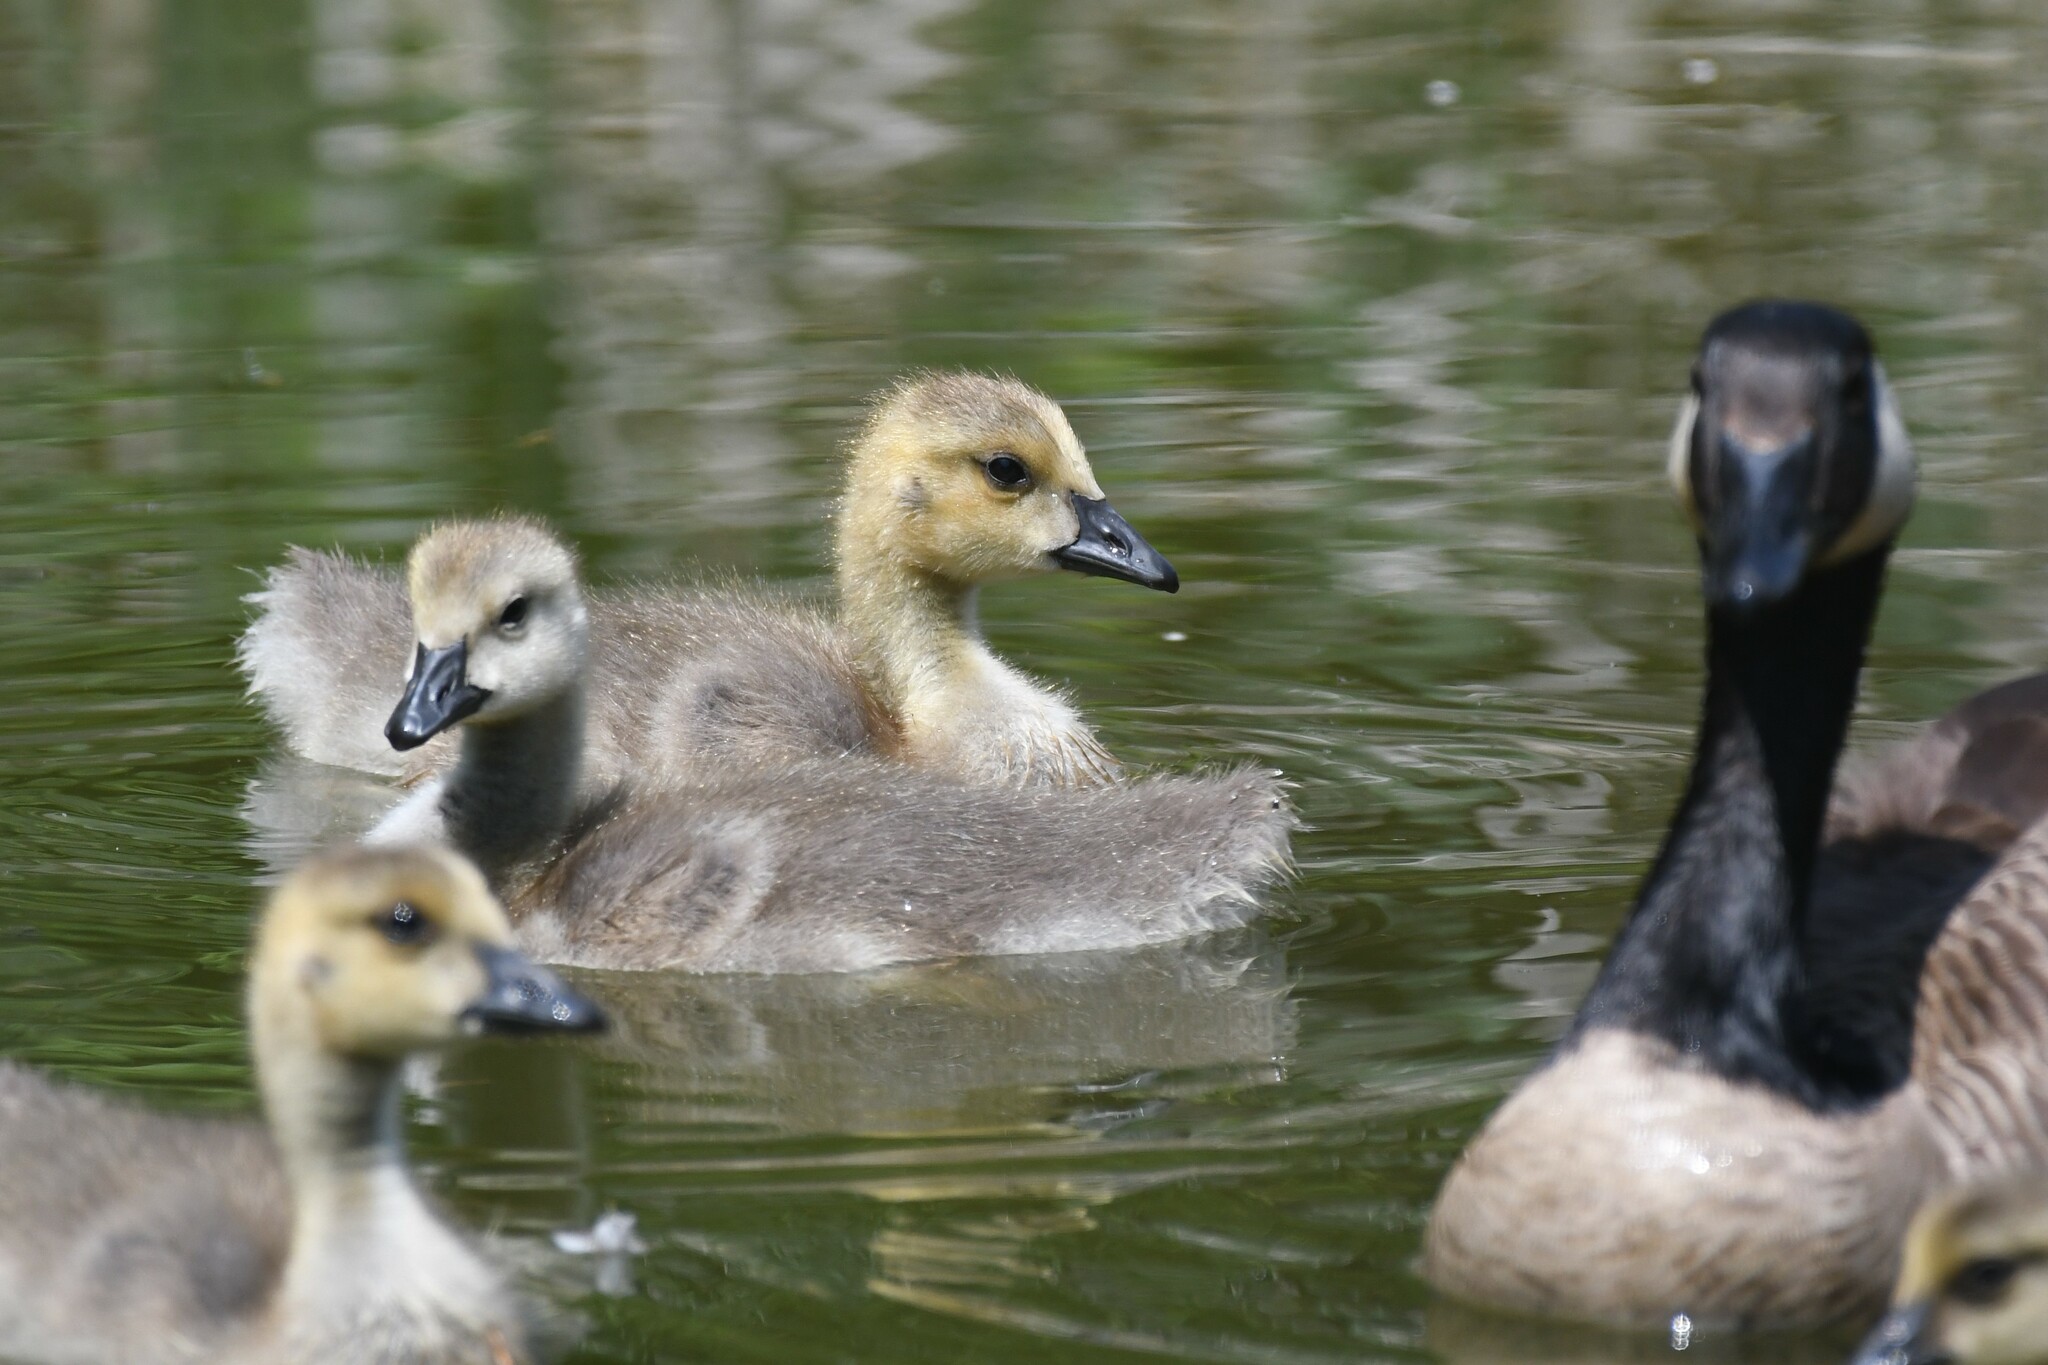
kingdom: Animalia
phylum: Chordata
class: Aves
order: Anseriformes
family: Anatidae
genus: Branta
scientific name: Branta canadensis
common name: Canada goose
